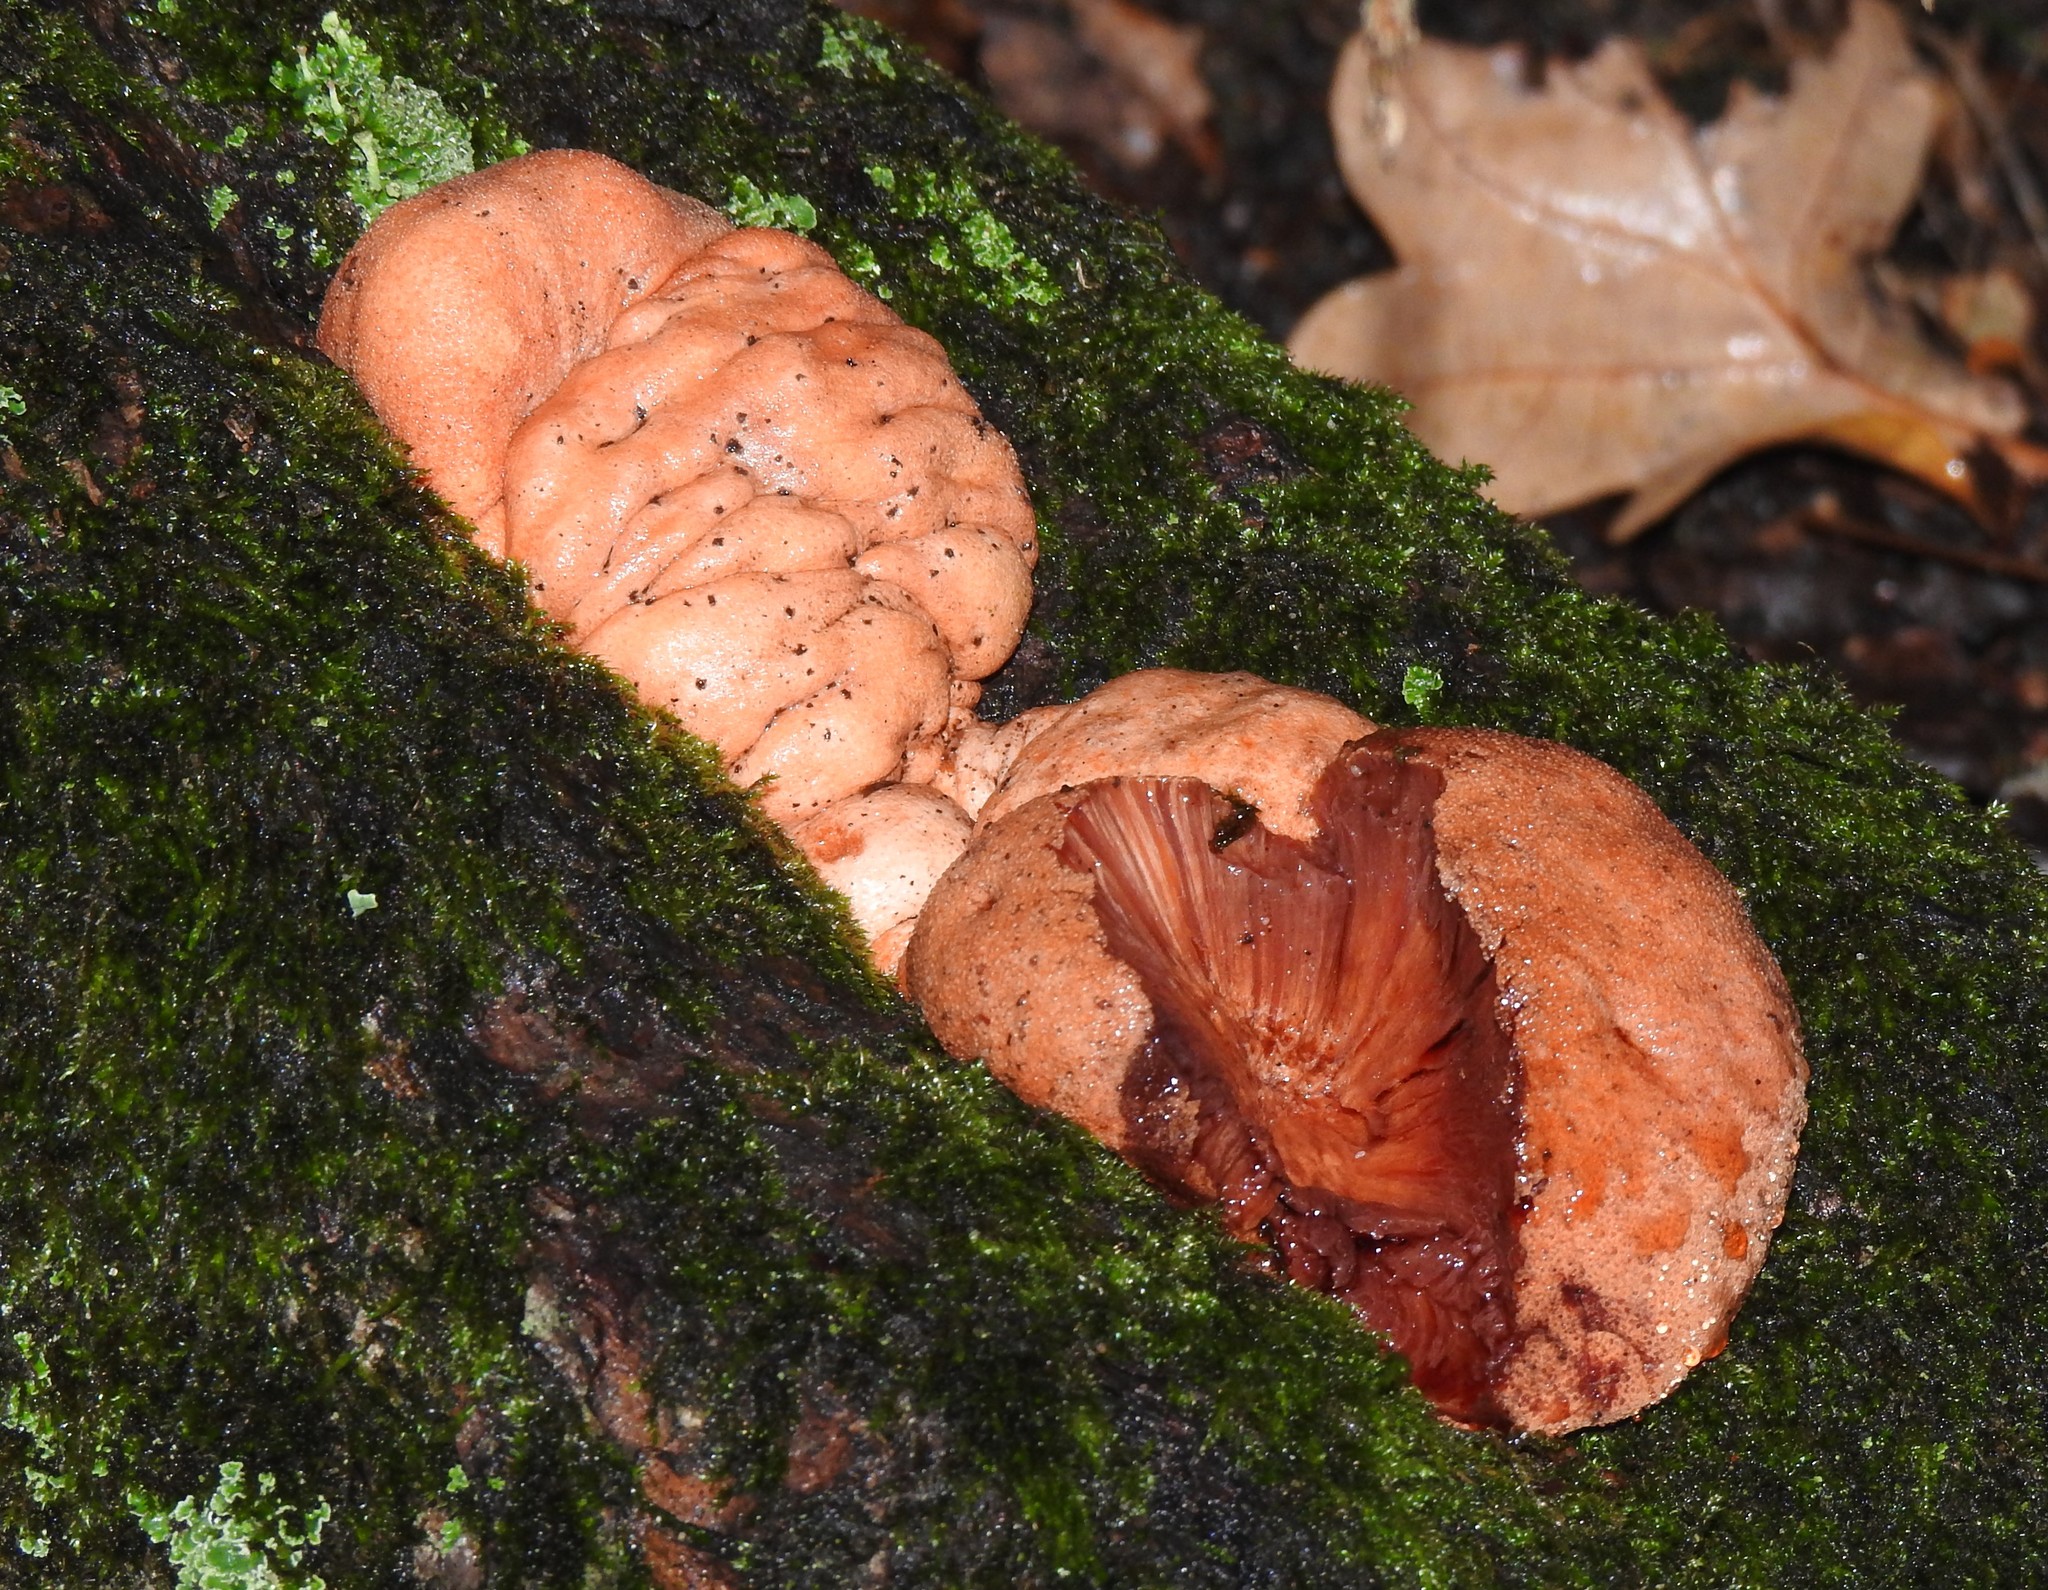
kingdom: Fungi
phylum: Basidiomycota
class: Agaricomycetes
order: Agaricales
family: Fistulinaceae
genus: Fistulina
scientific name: Fistulina hepatica
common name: Beef-steak fungus
